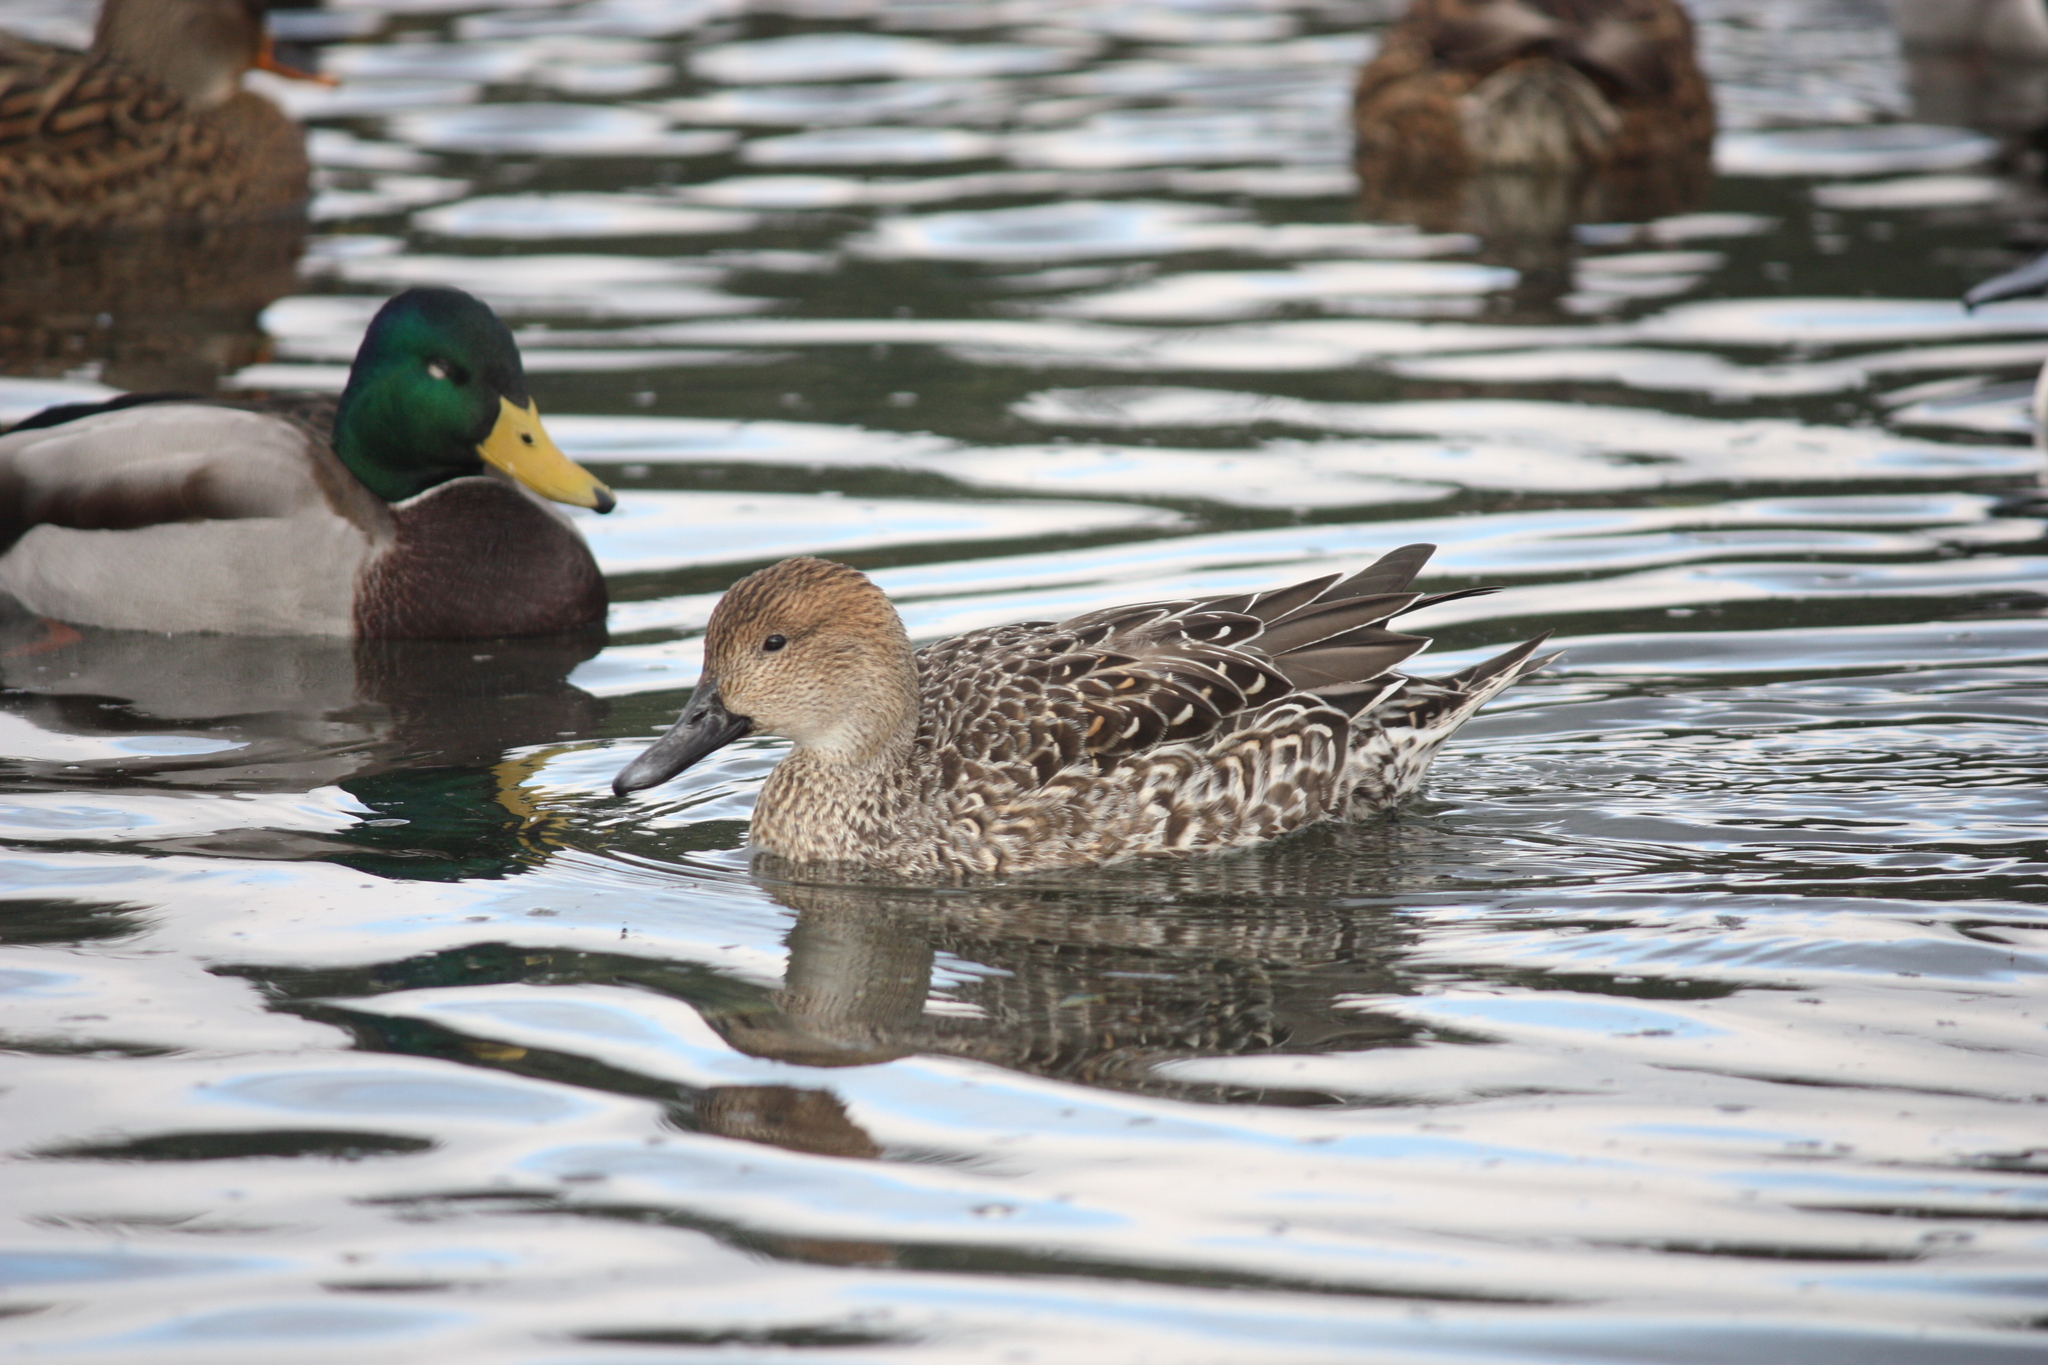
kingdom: Animalia
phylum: Chordata
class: Aves
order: Anseriformes
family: Anatidae
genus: Anas
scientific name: Anas acuta
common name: Northern pintail
